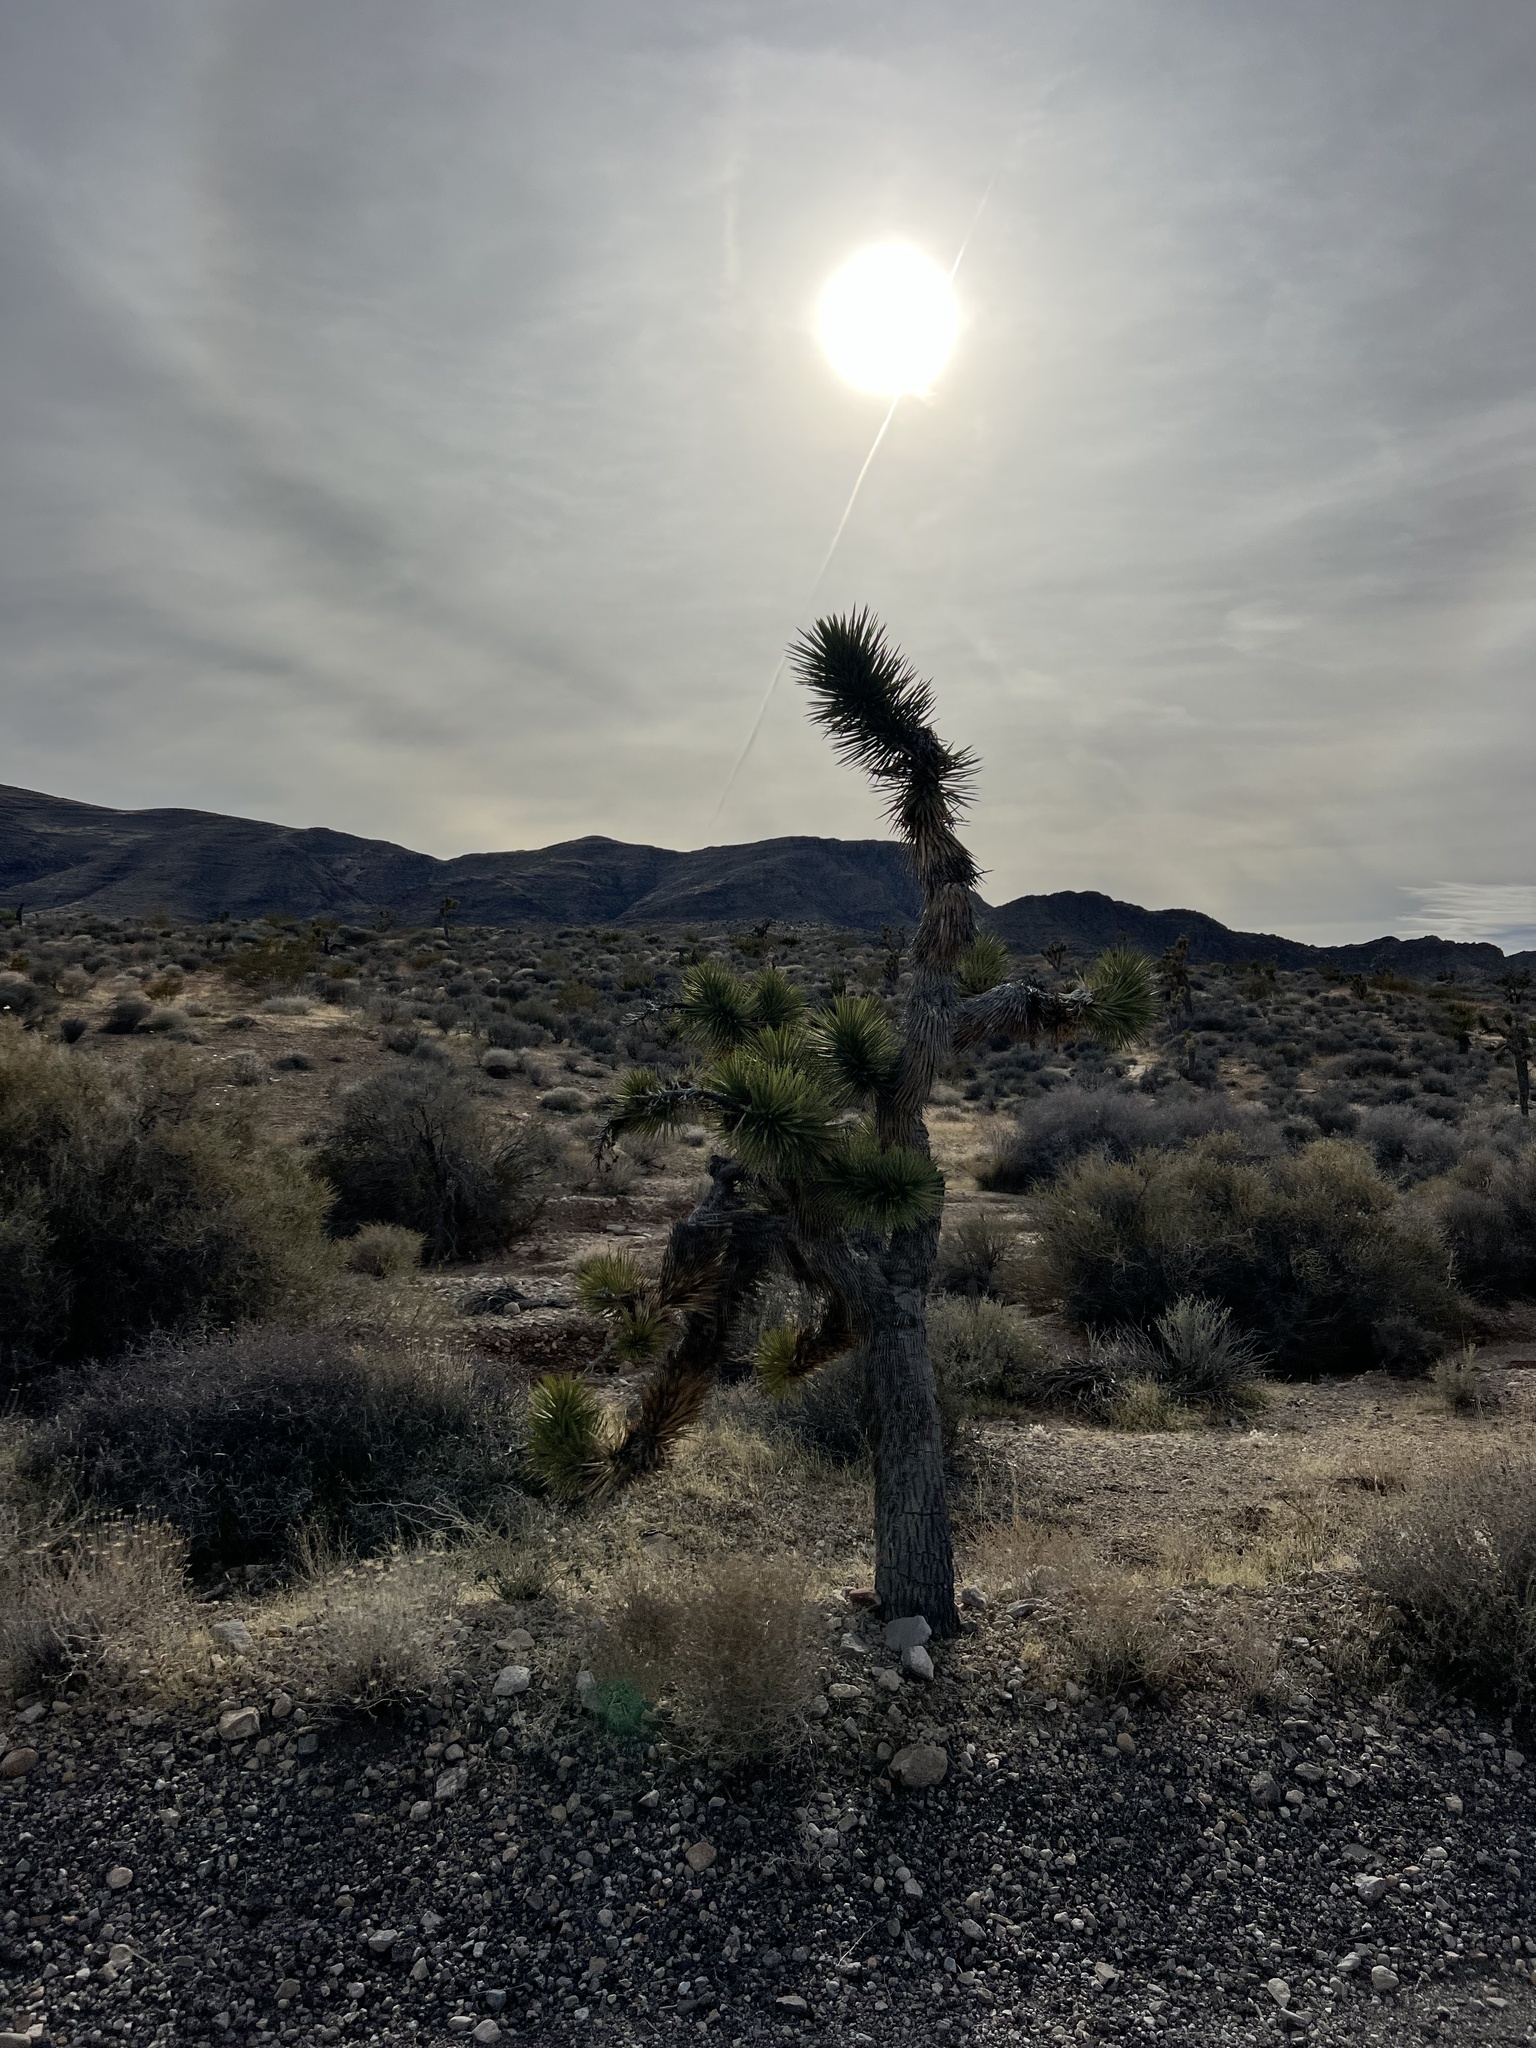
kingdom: Plantae
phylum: Tracheophyta
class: Liliopsida
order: Asparagales
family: Asparagaceae
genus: Yucca
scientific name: Yucca brevifolia
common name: Joshua tree
